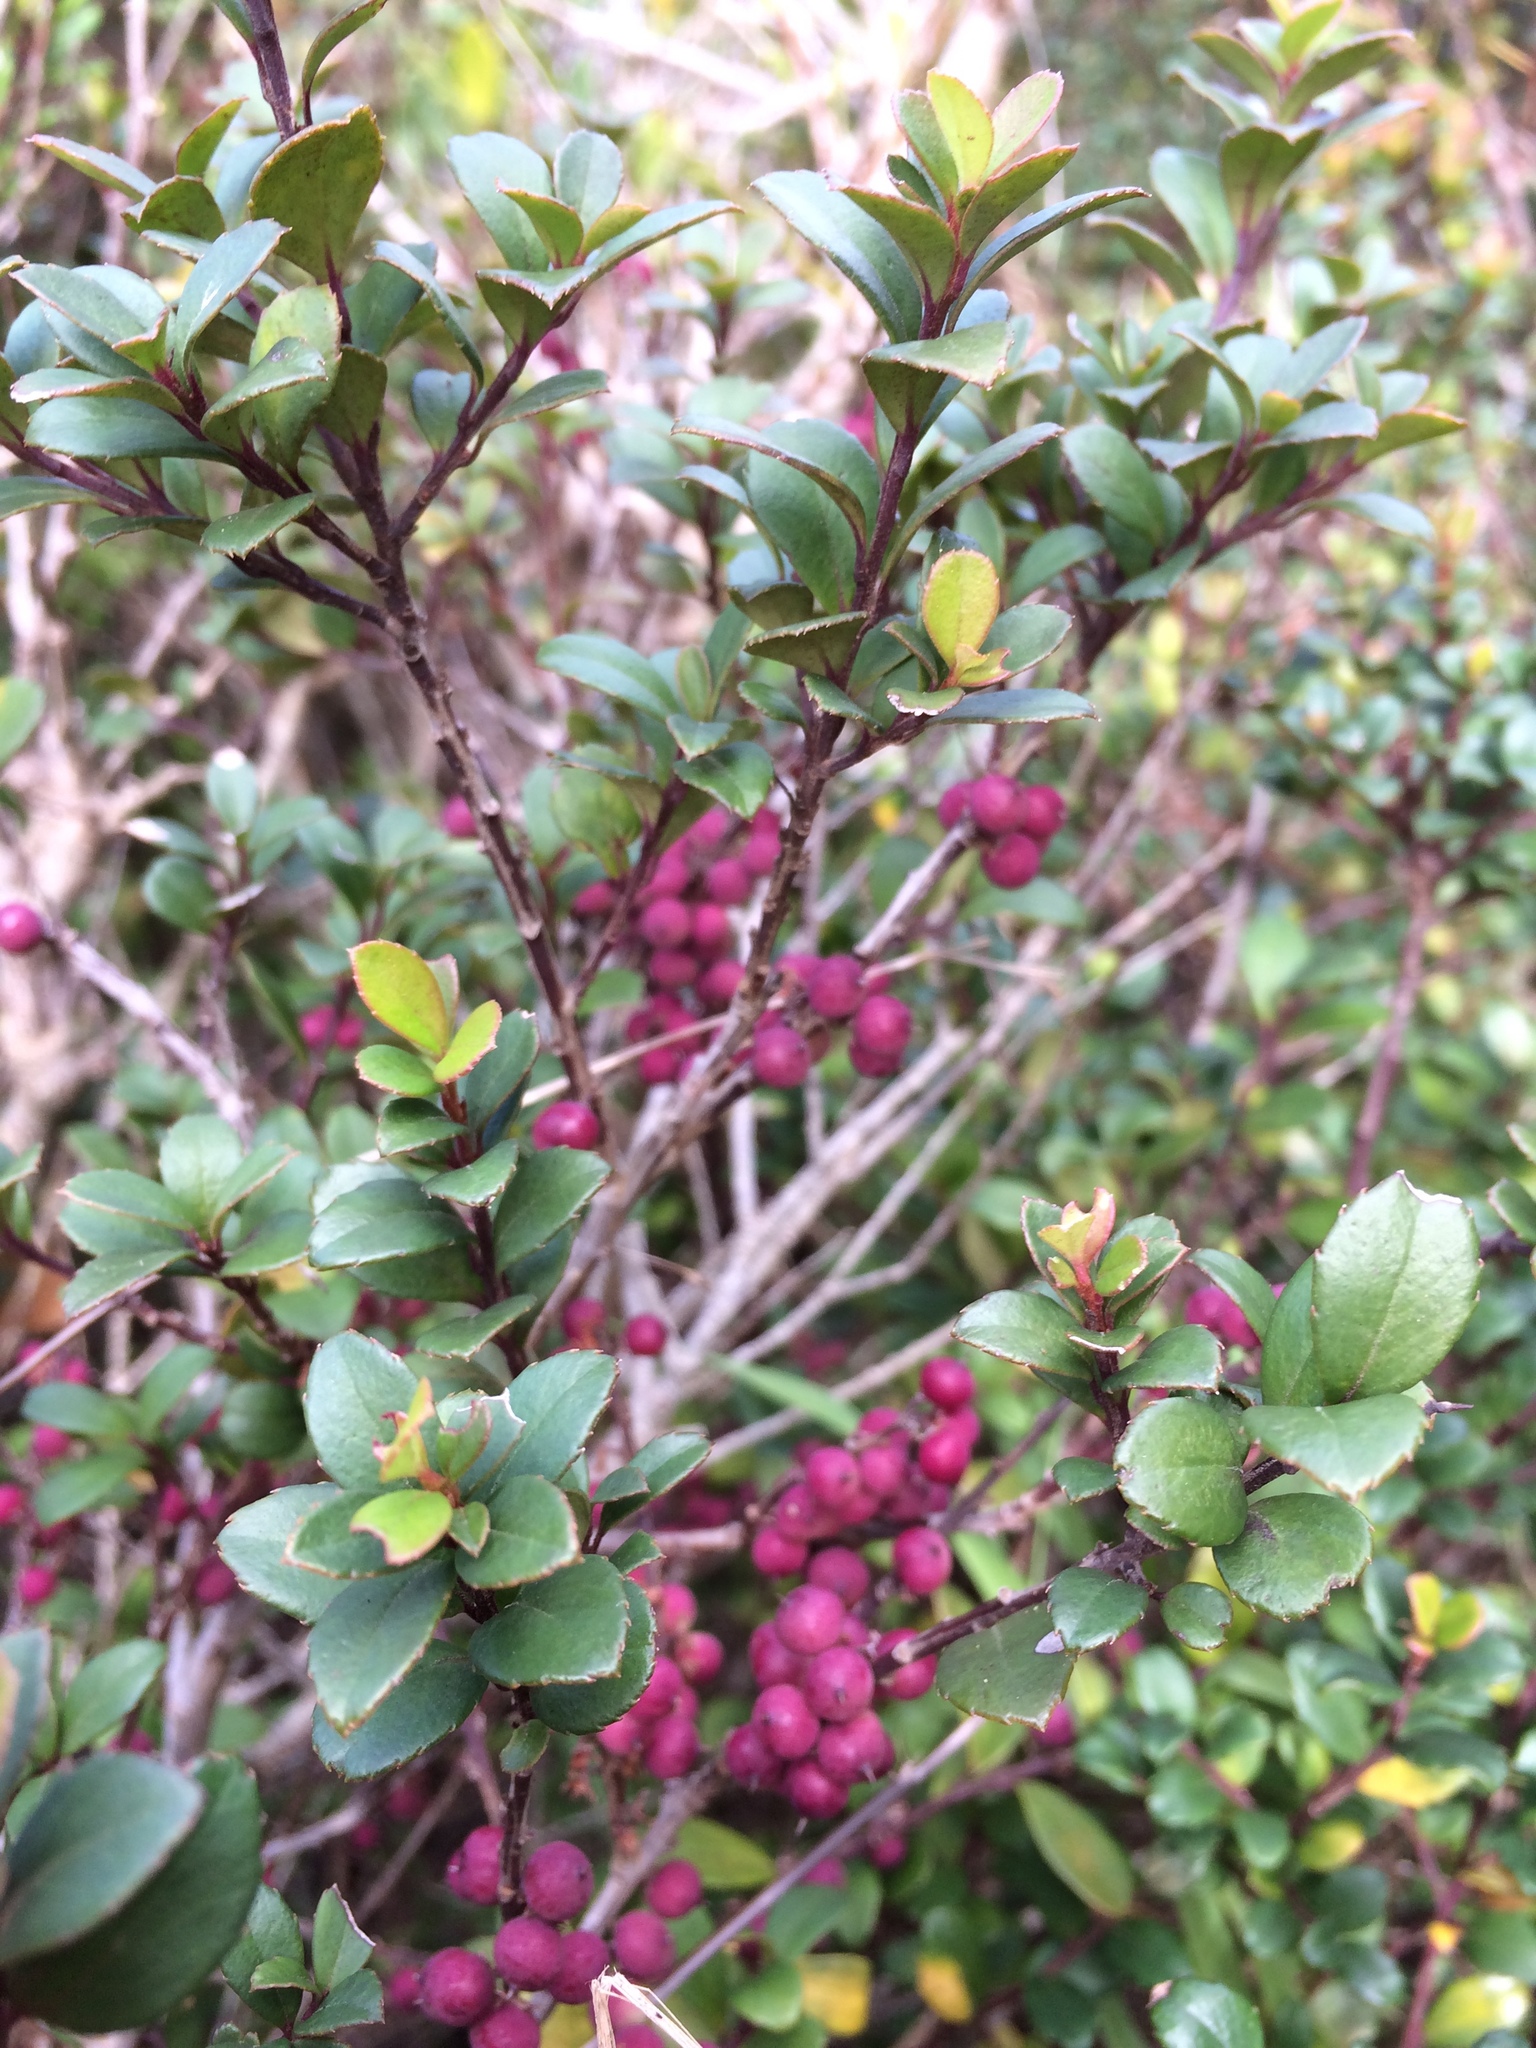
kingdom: Plantae
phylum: Tracheophyta
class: Magnoliopsida
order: Ericales
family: Primulaceae
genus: Myrsine
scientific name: Myrsine africana
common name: African-boxwood
